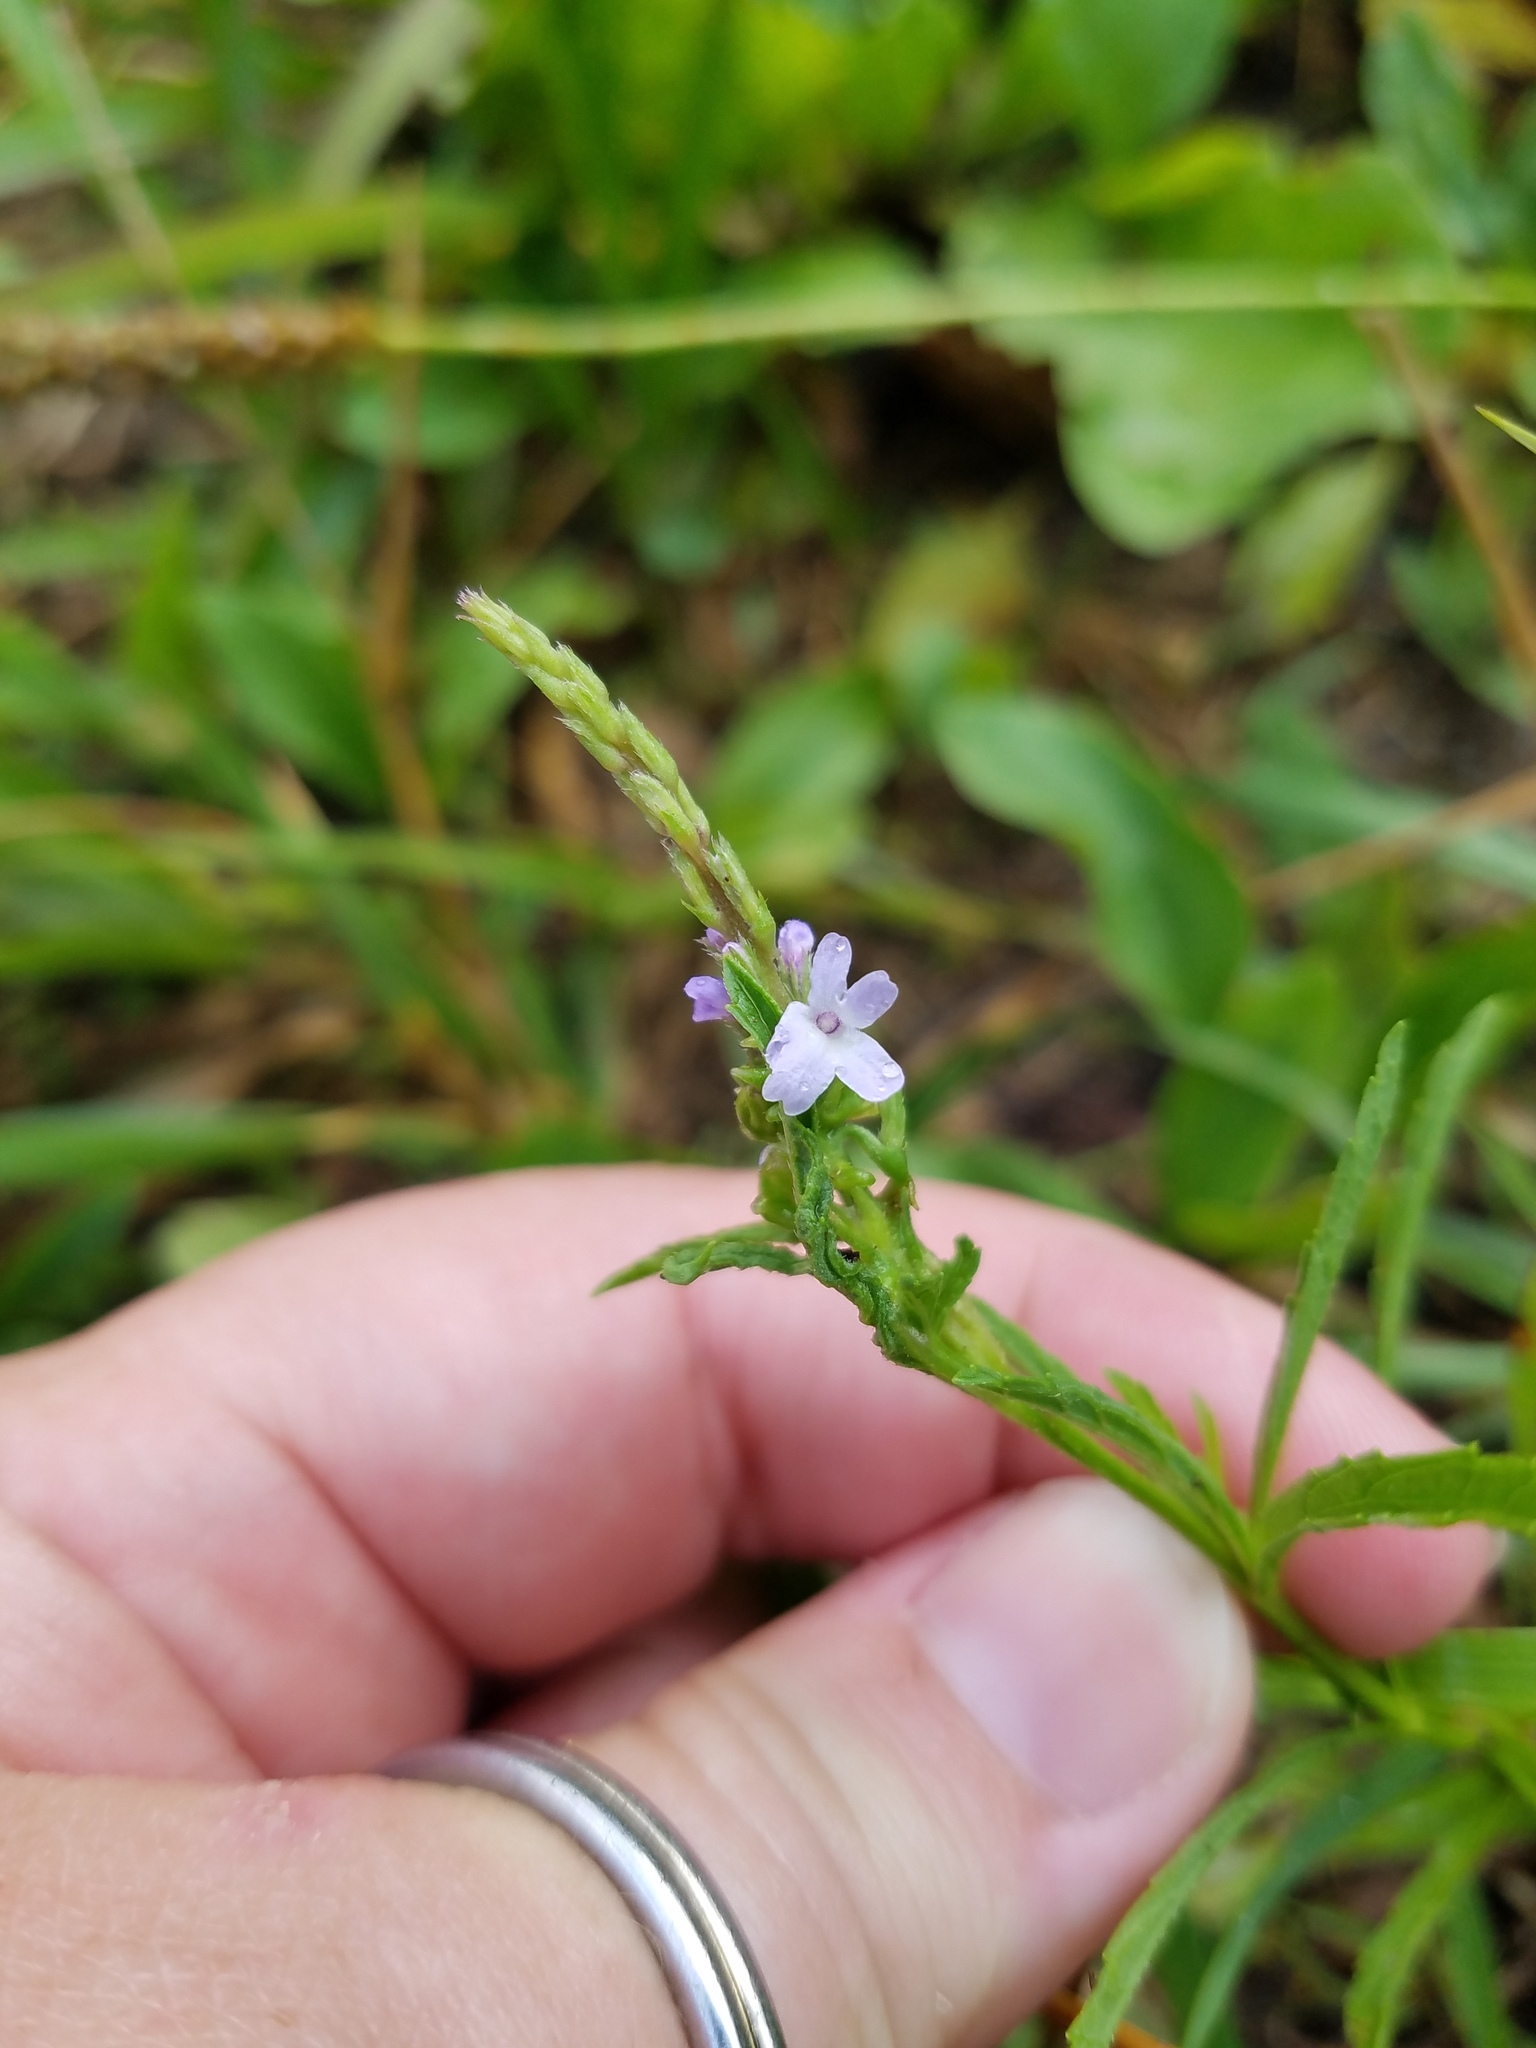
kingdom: Plantae
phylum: Tracheophyta
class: Magnoliopsida
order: Lamiales
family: Verbenaceae
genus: Verbena
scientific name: Verbena simplex
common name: Narrow-leaf vervain
